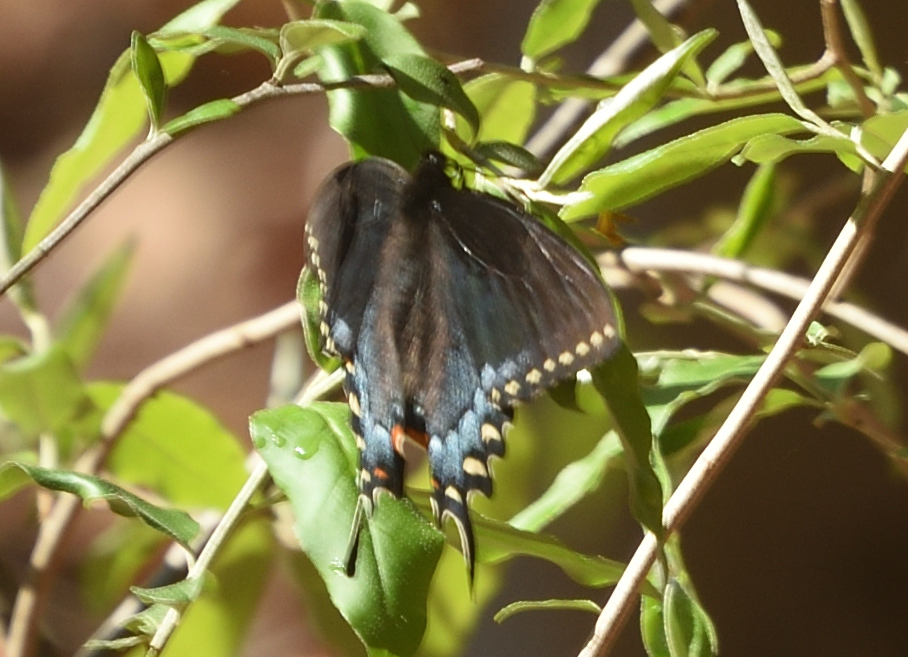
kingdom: Animalia
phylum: Arthropoda
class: Insecta
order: Lepidoptera
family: Papilionidae
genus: Papilio
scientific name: Papilio glaucus
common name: Tiger swallowtail
